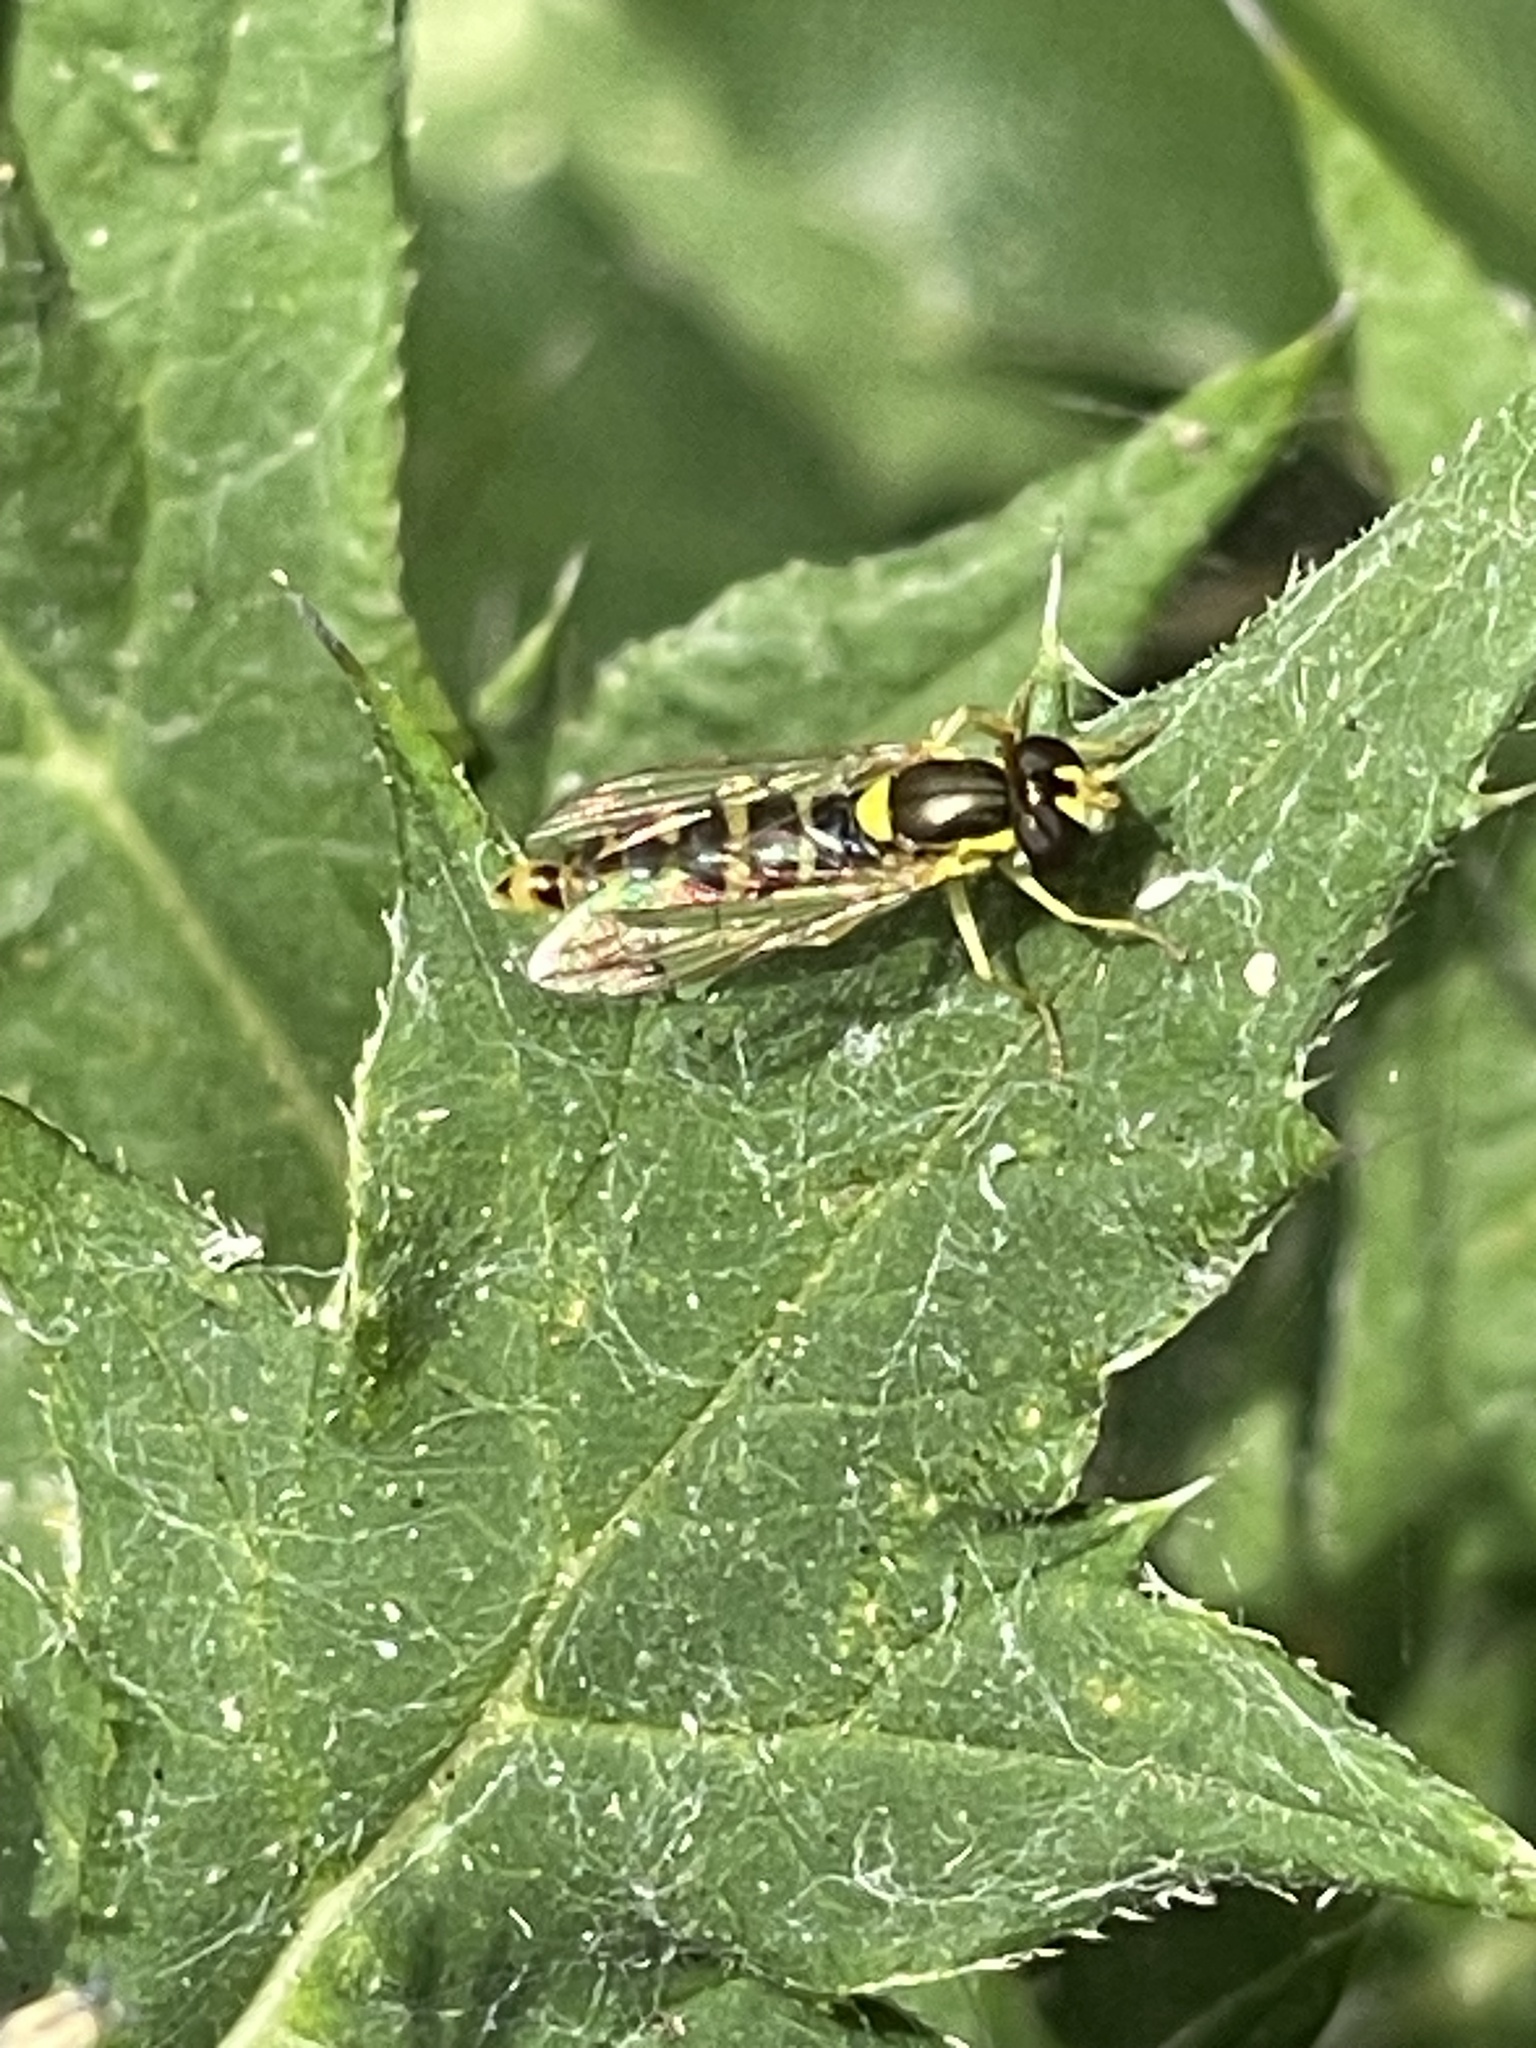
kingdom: Animalia
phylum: Arthropoda
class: Insecta
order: Diptera
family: Syrphidae
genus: Sphaerophoria
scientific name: Sphaerophoria
